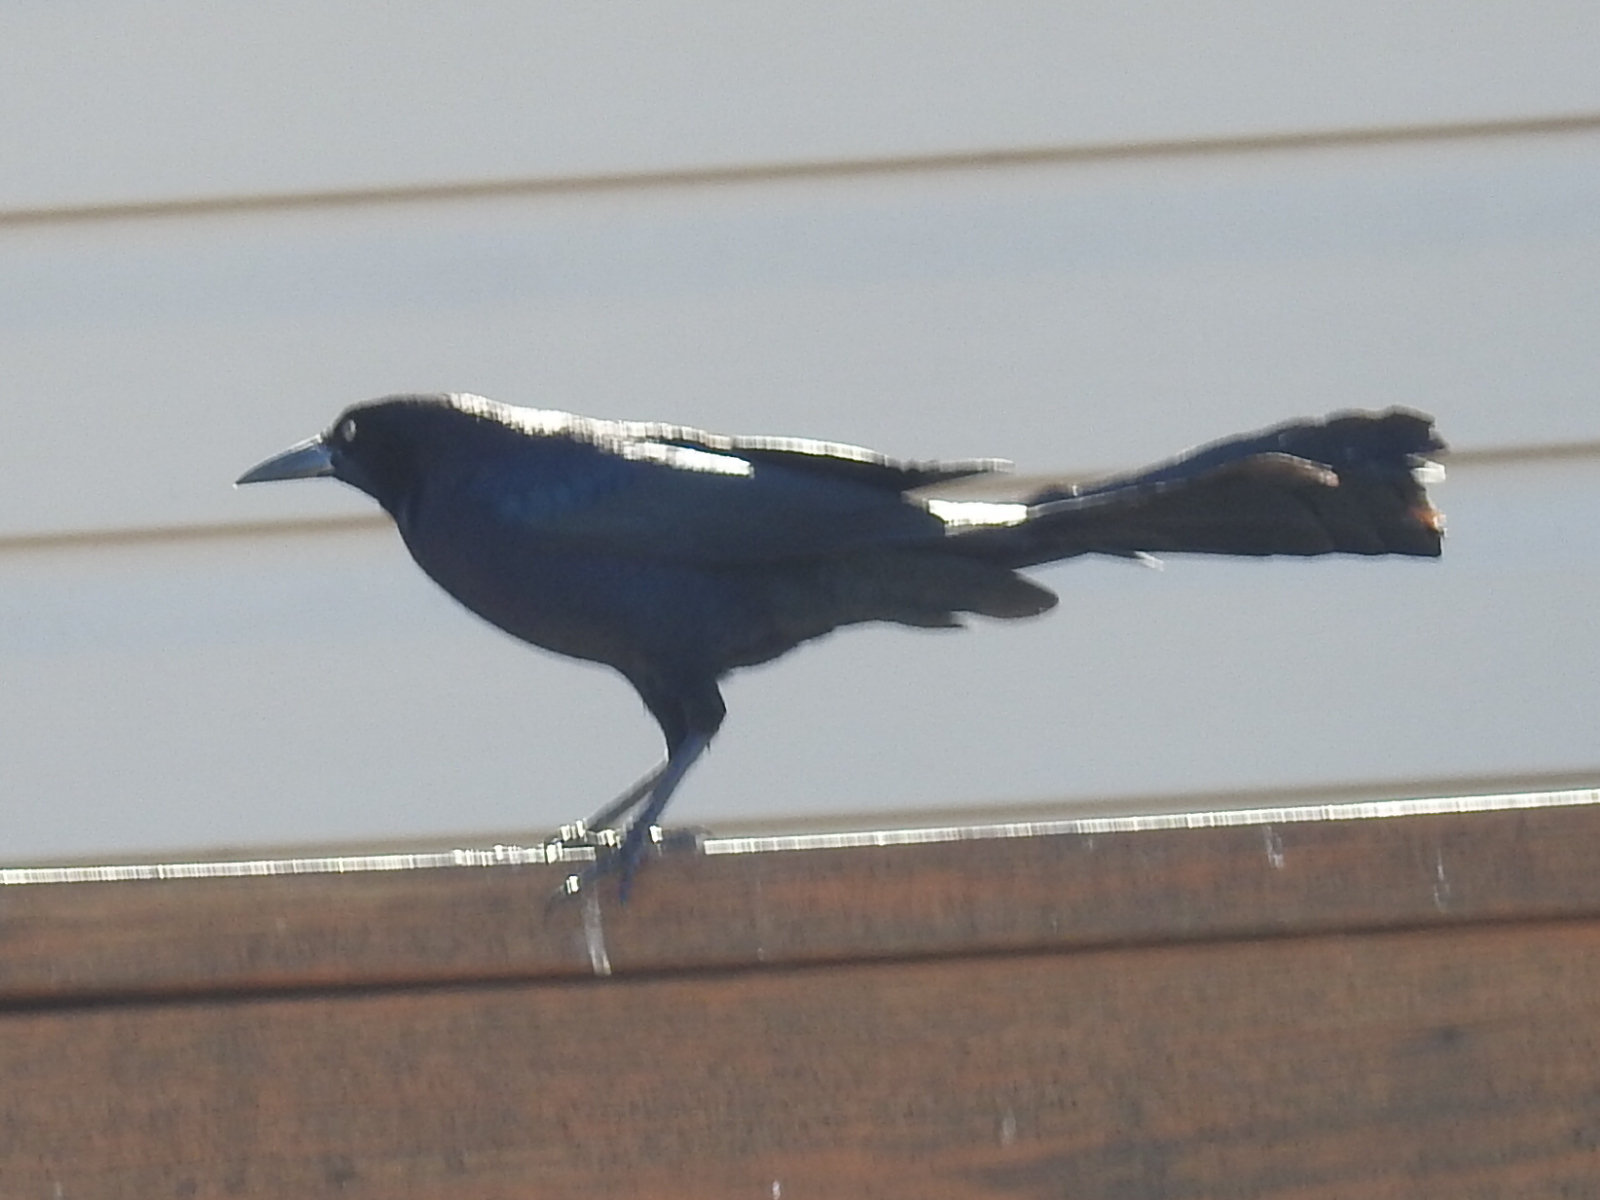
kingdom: Animalia
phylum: Chordata
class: Aves
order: Passeriformes
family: Icteridae
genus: Quiscalus
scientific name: Quiscalus mexicanus
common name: Great-tailed grackle
